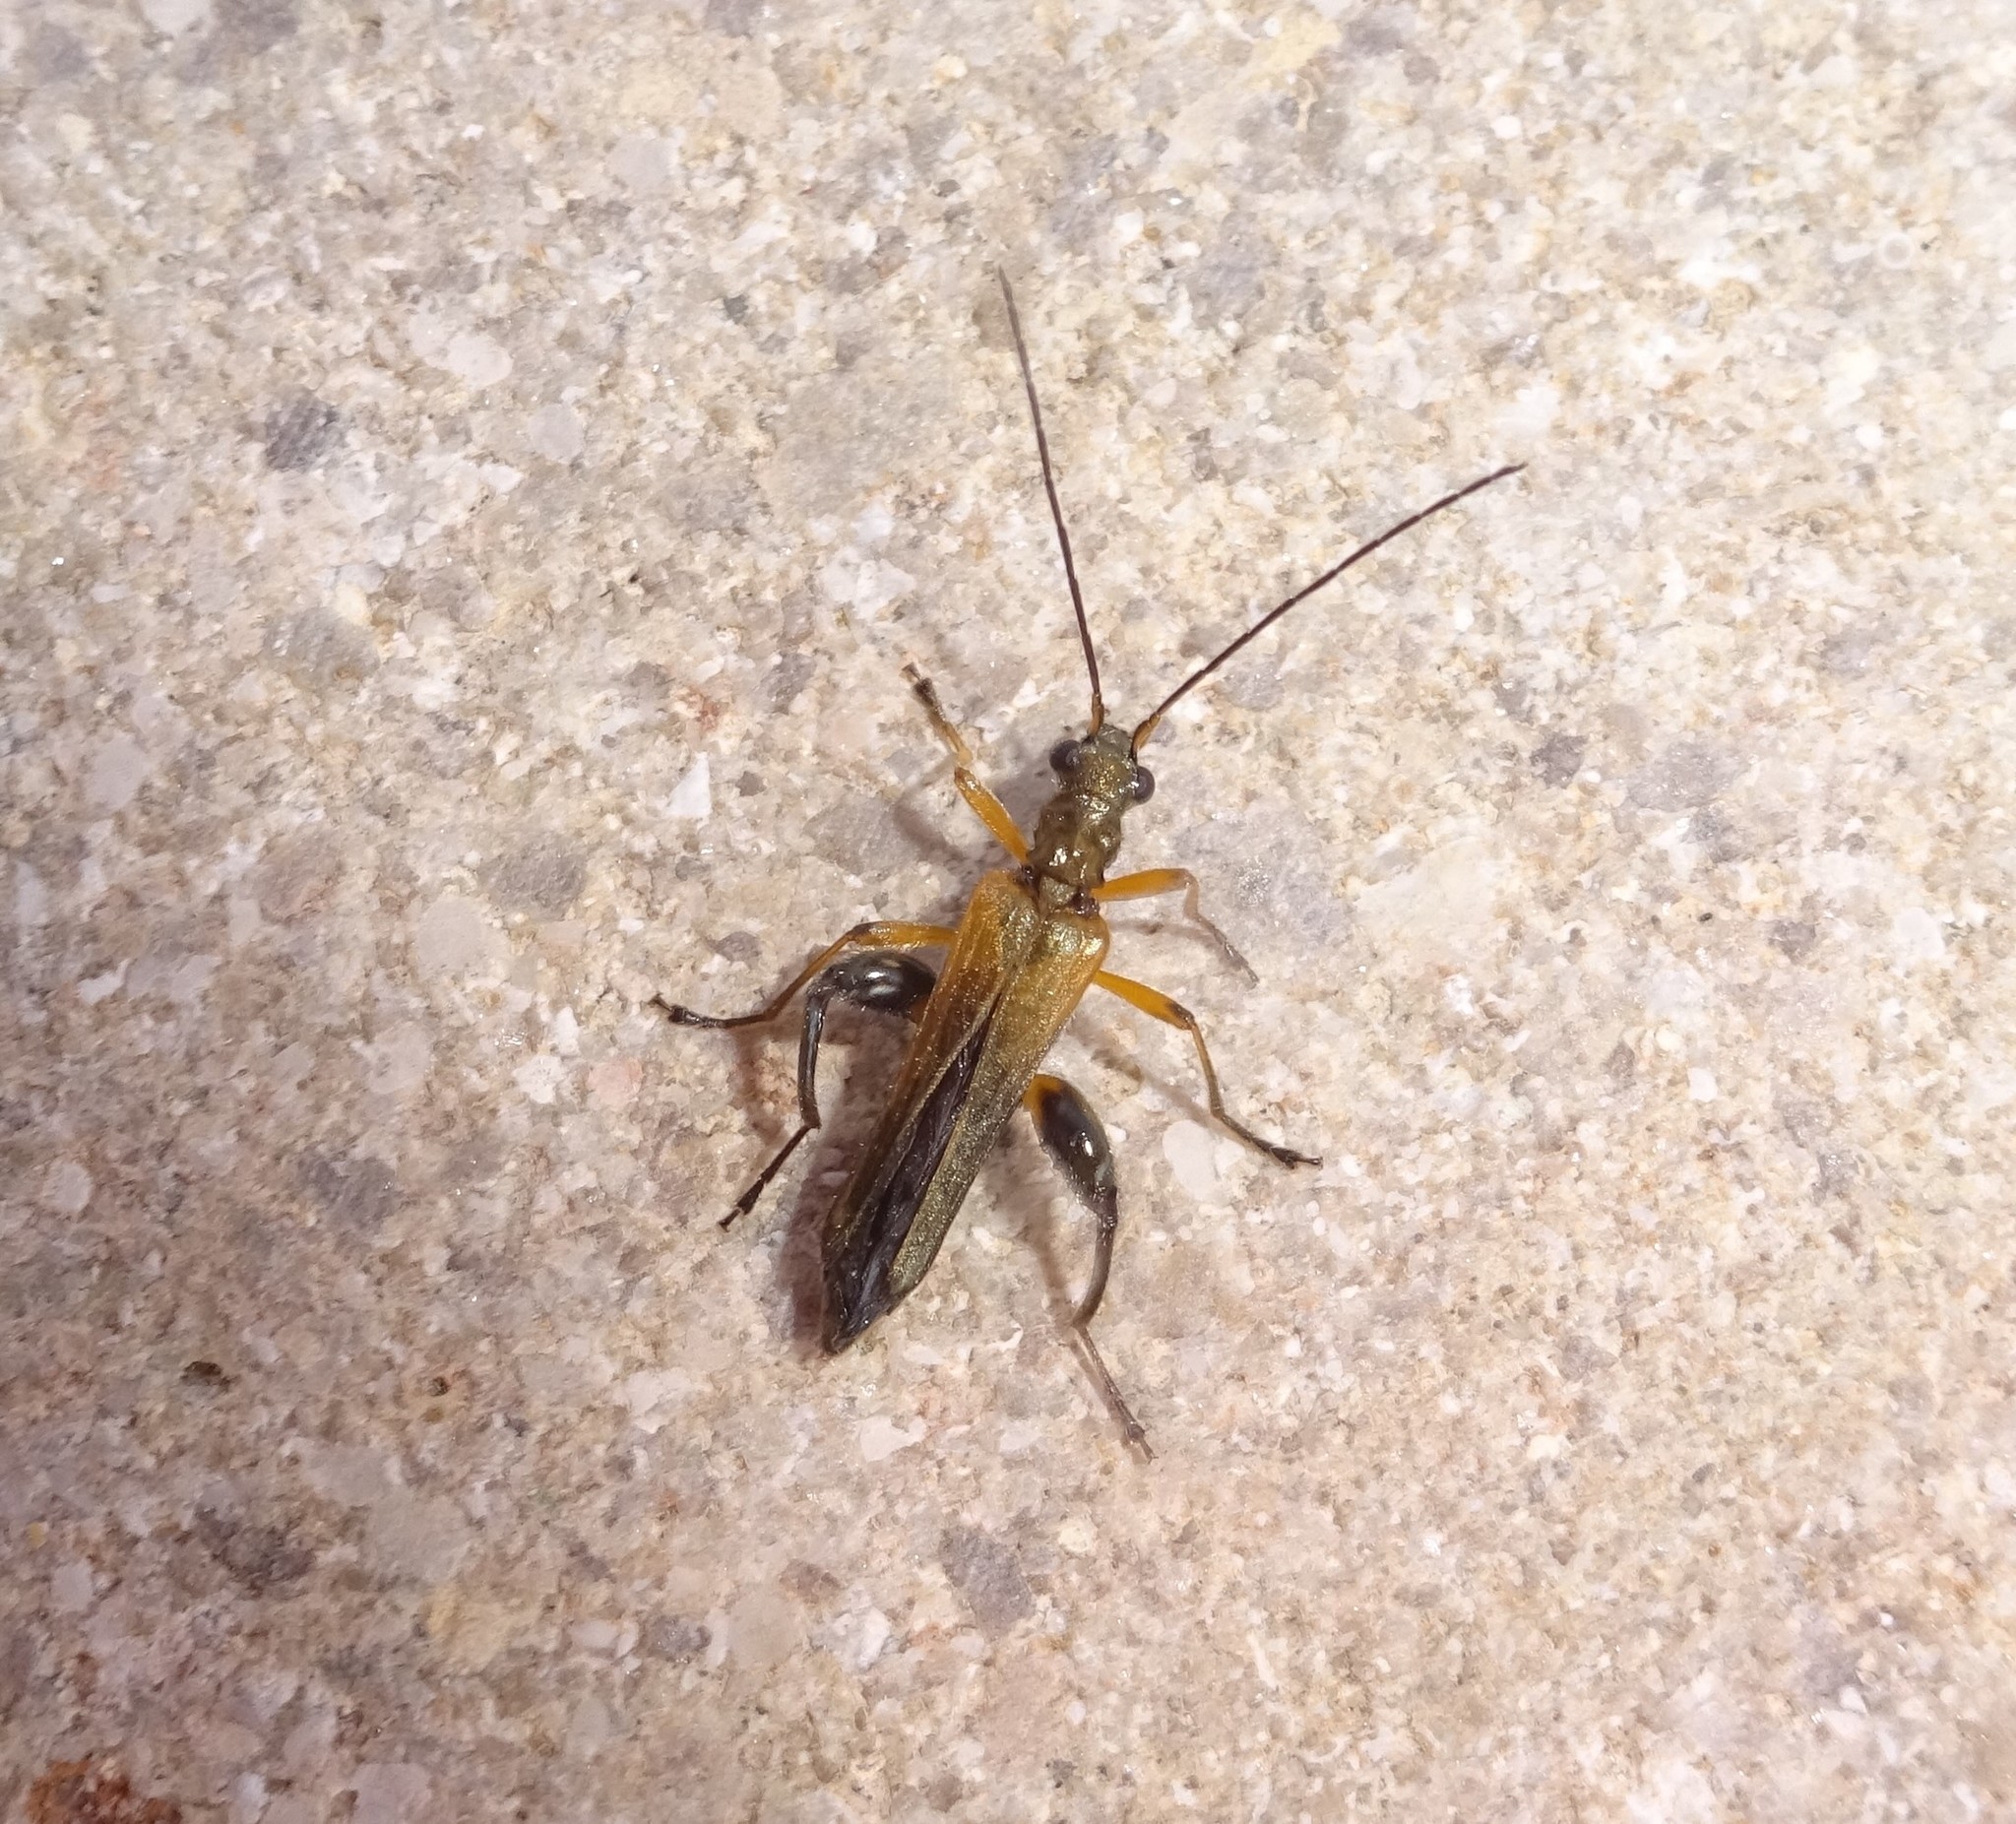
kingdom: Animalia
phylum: Arthropoda
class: Insecta
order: Coleoptera
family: Oedemeridae
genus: Oedemera
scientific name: Oedemera podagrariae
